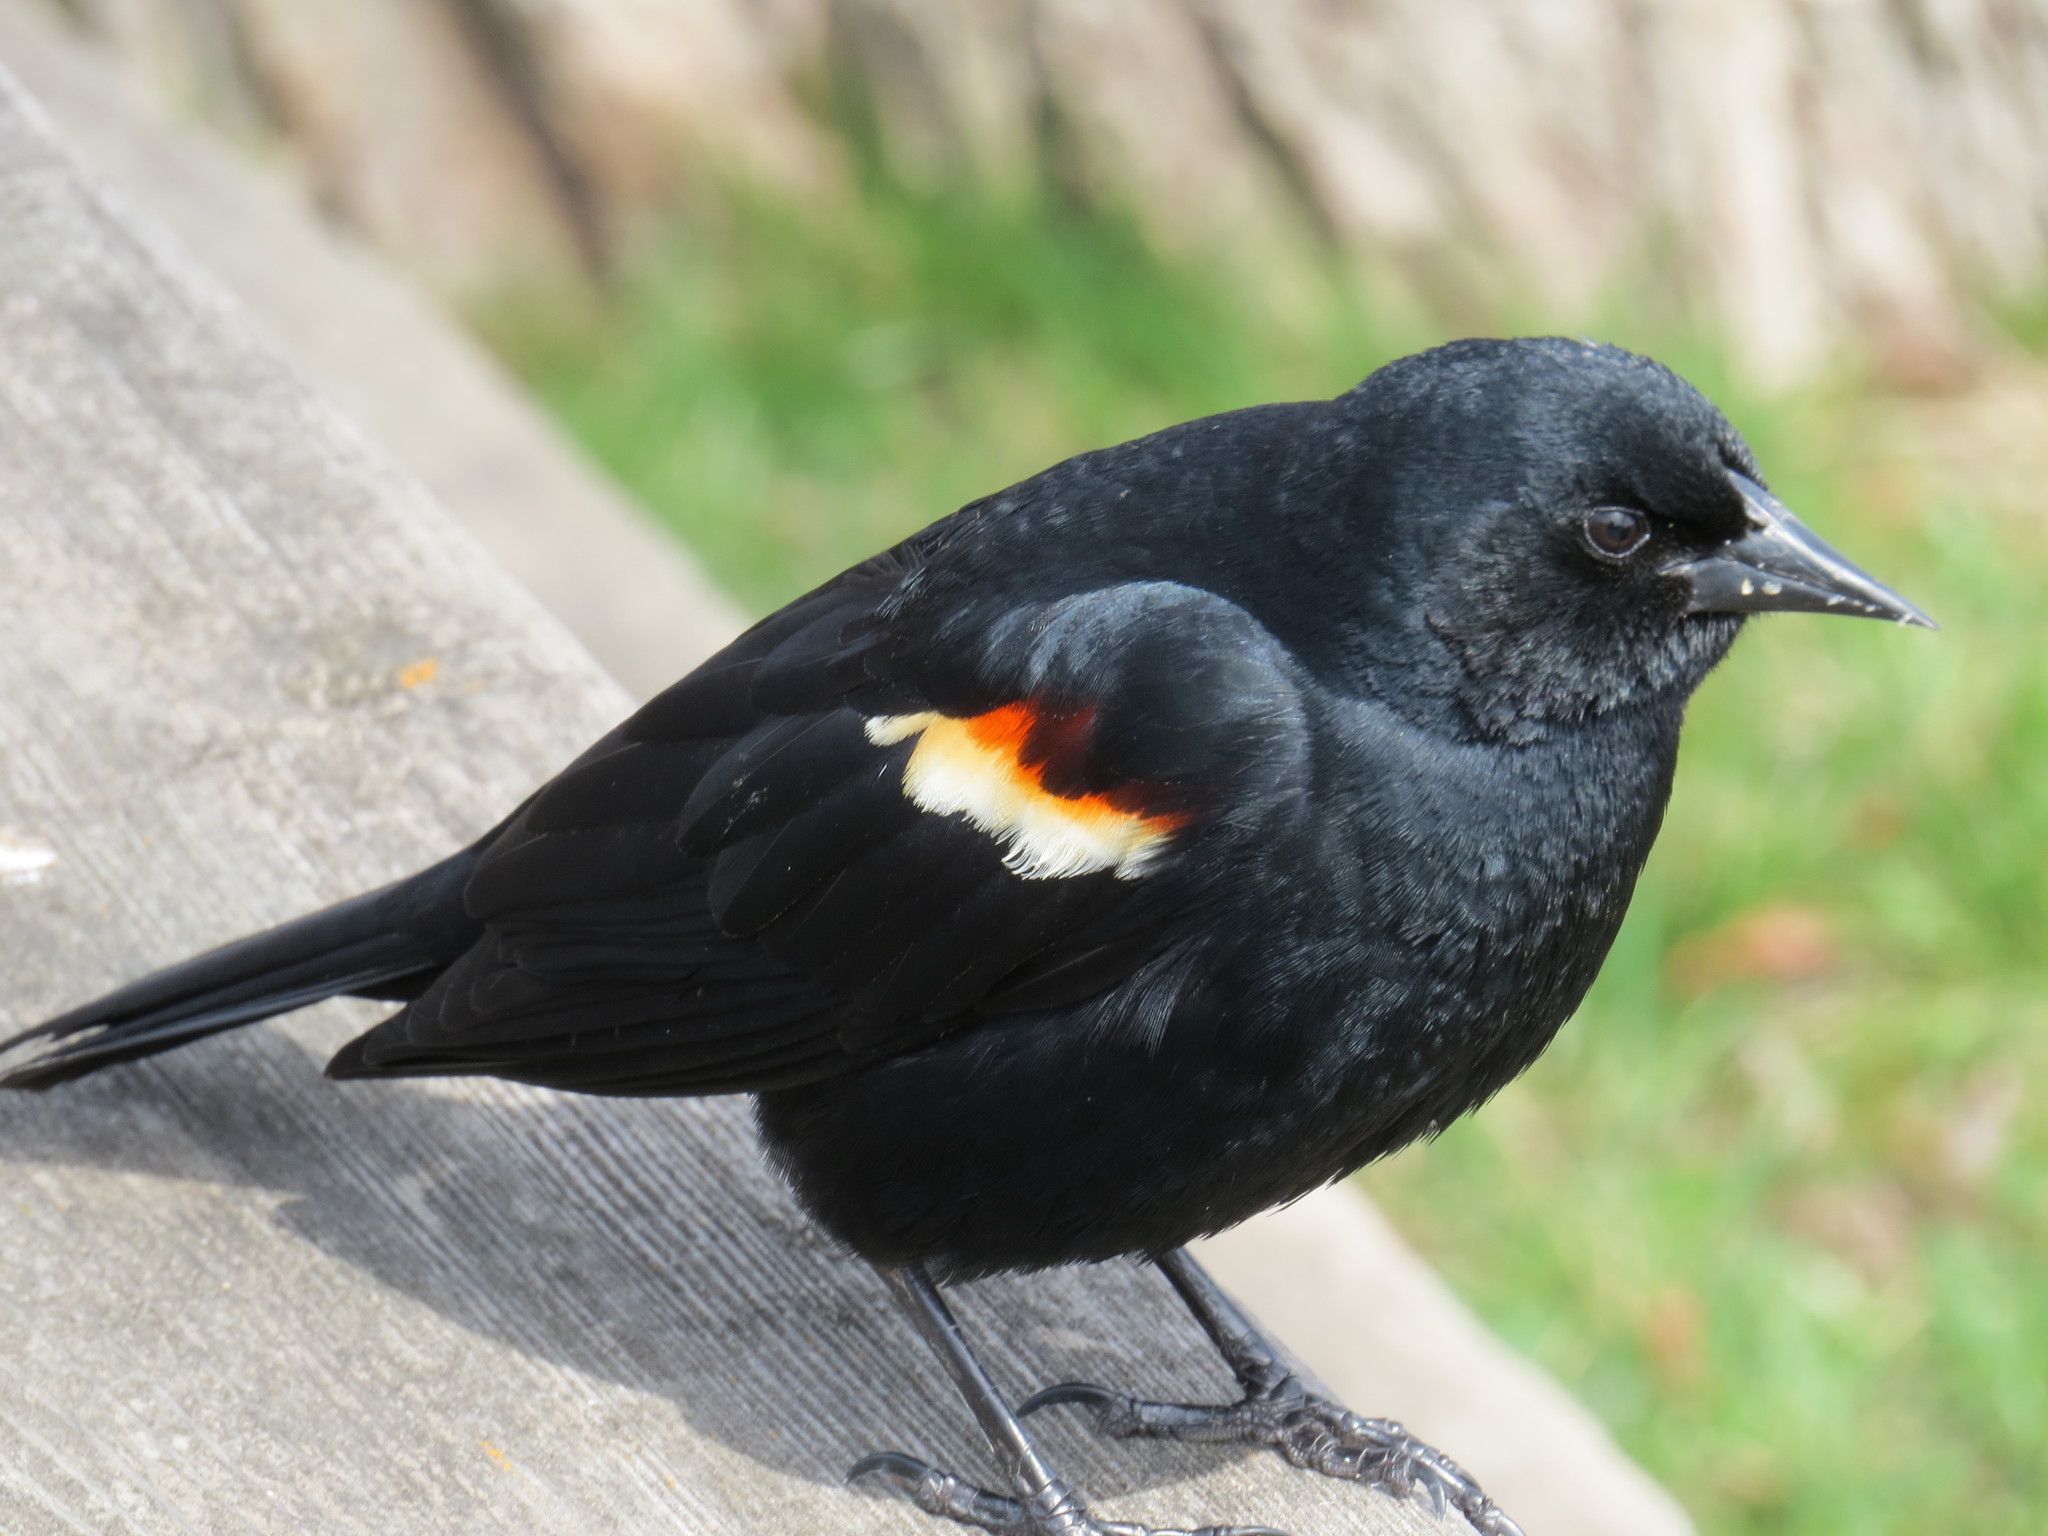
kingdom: Animalia
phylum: Chordata
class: Aves
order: Passeriformes
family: Icteridae
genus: Agelaius
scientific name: Agelaius phoeniceus
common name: Red-winged blackbird
